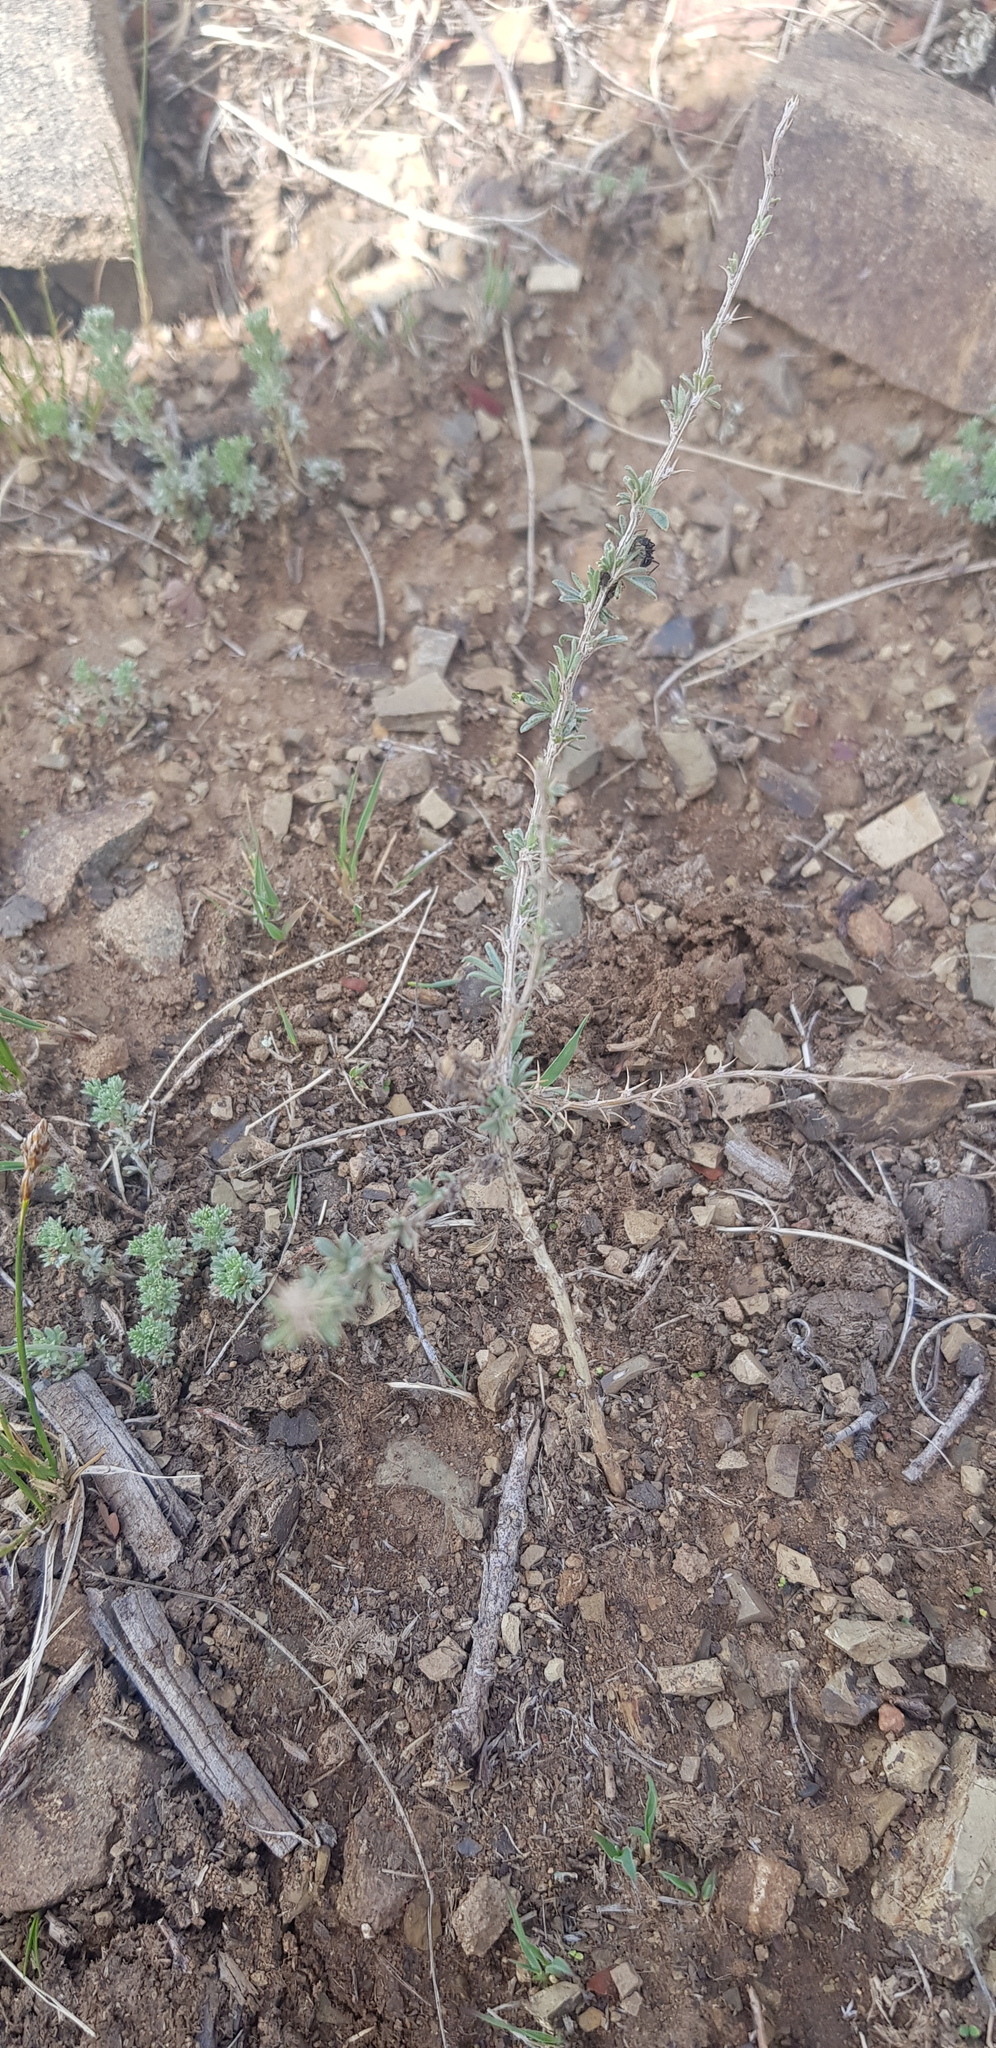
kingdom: Plantae
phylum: Tracheophyta
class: Magnoliopsida
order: Fabales
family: Fabaceae
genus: Caragana
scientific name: Caragana stenophylla
